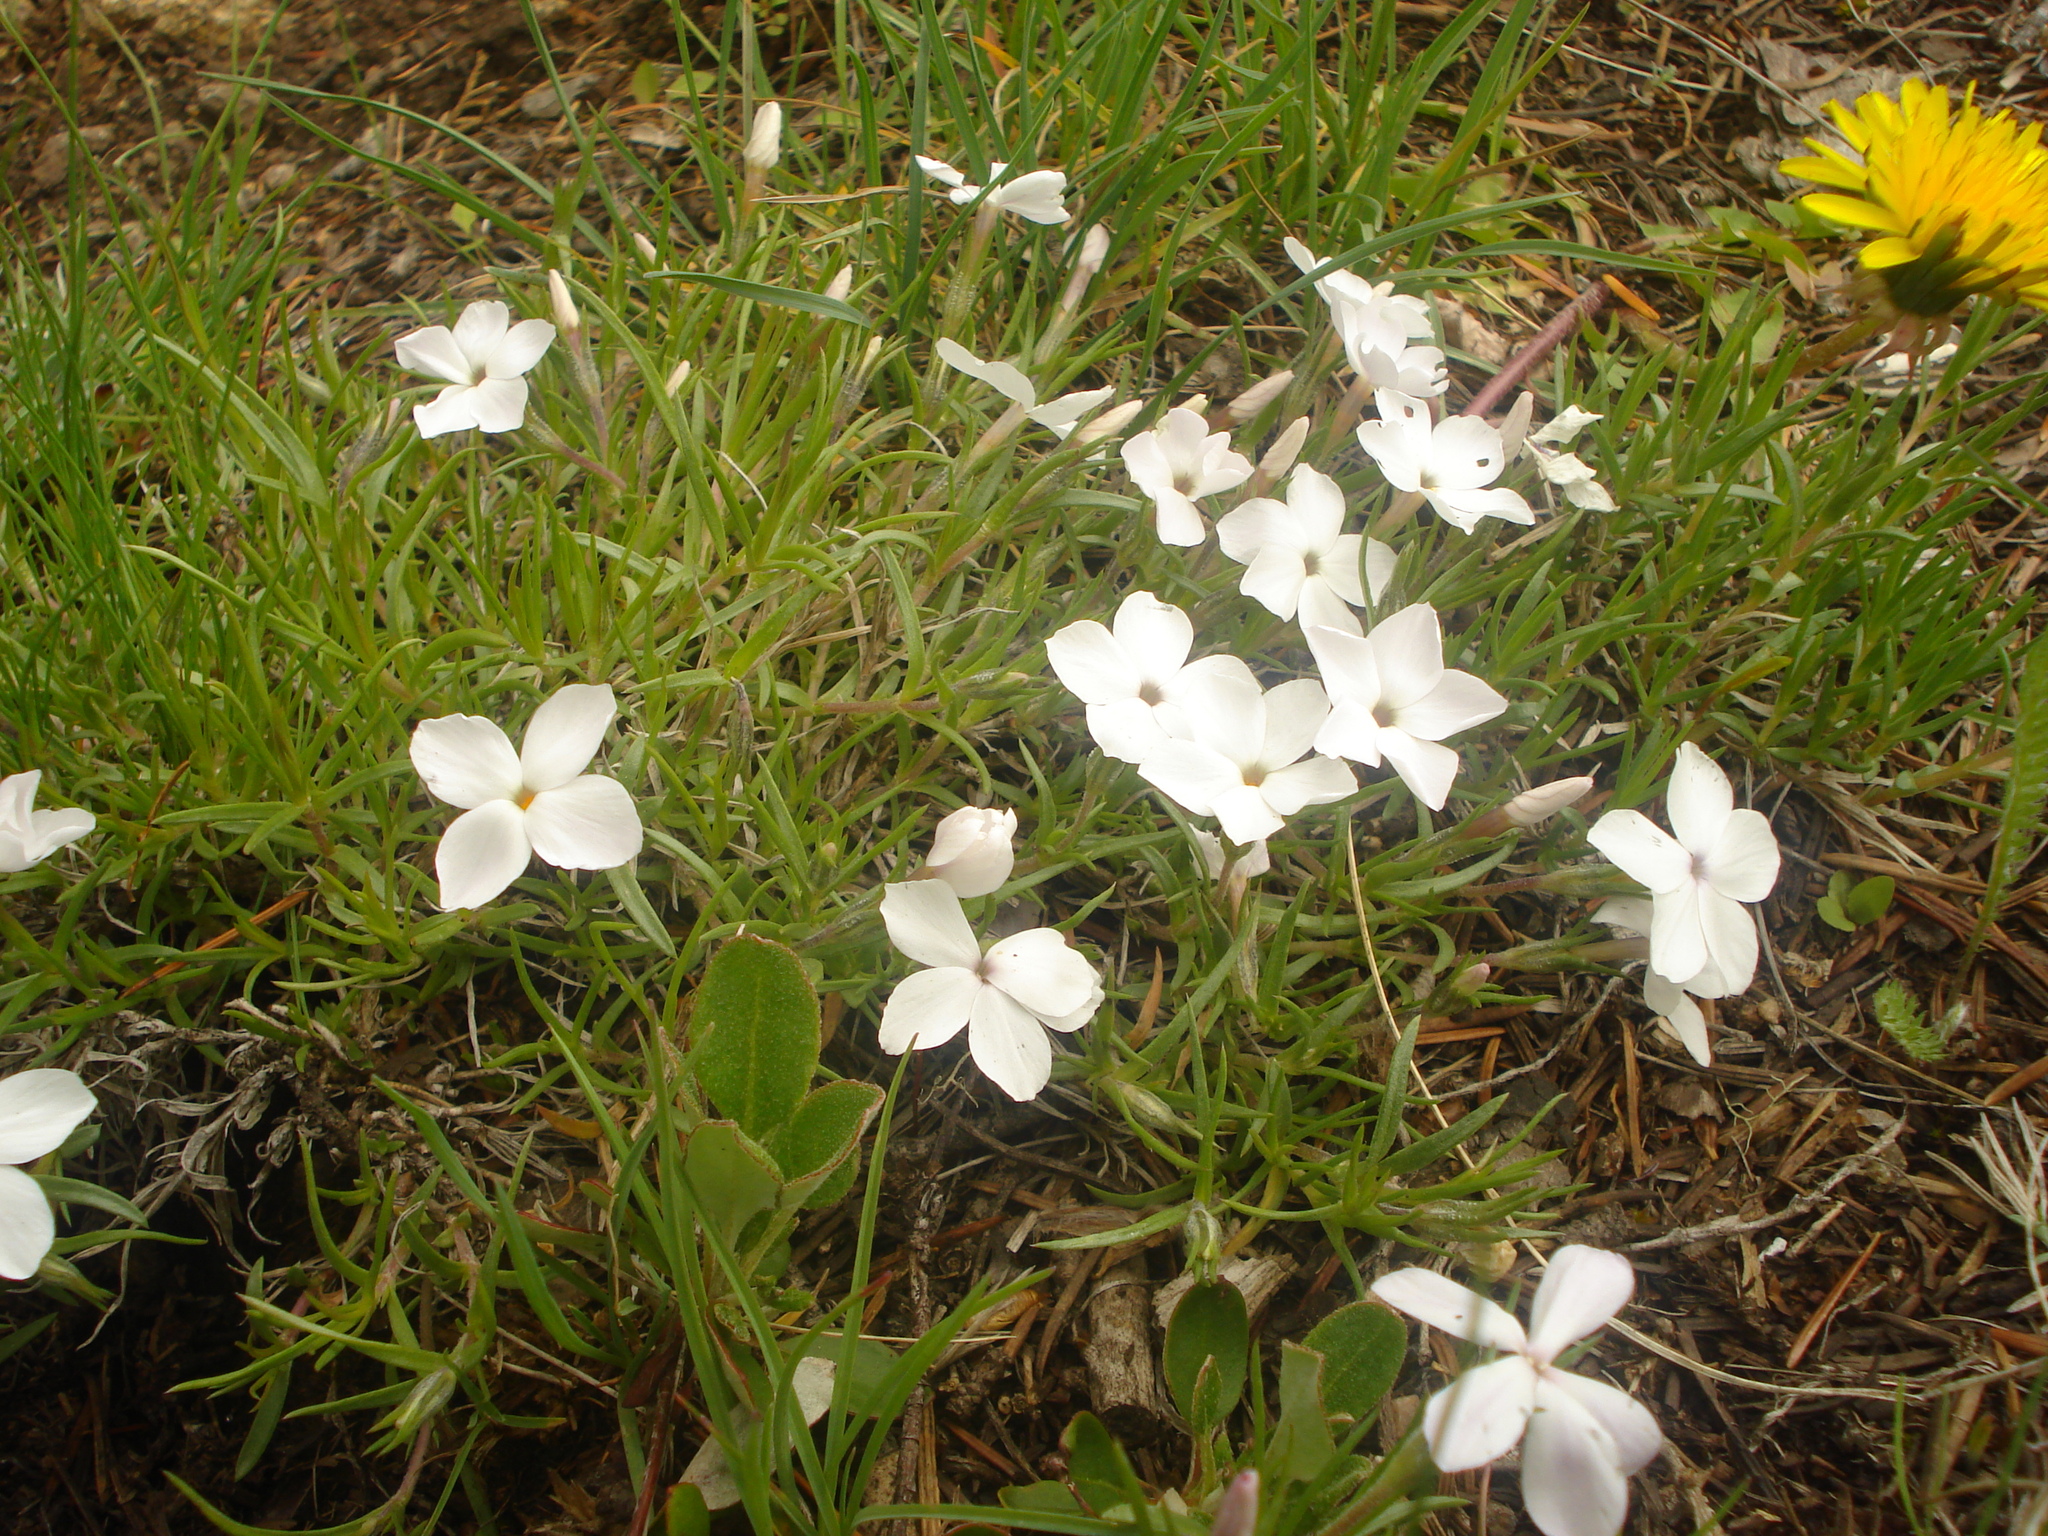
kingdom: Plantae
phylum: Tracheophyta
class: Magnoliopsida
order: Ericales
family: Polemoniaceae
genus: Phlox
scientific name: Phlox multiflora
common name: Rocky mountain phlox
